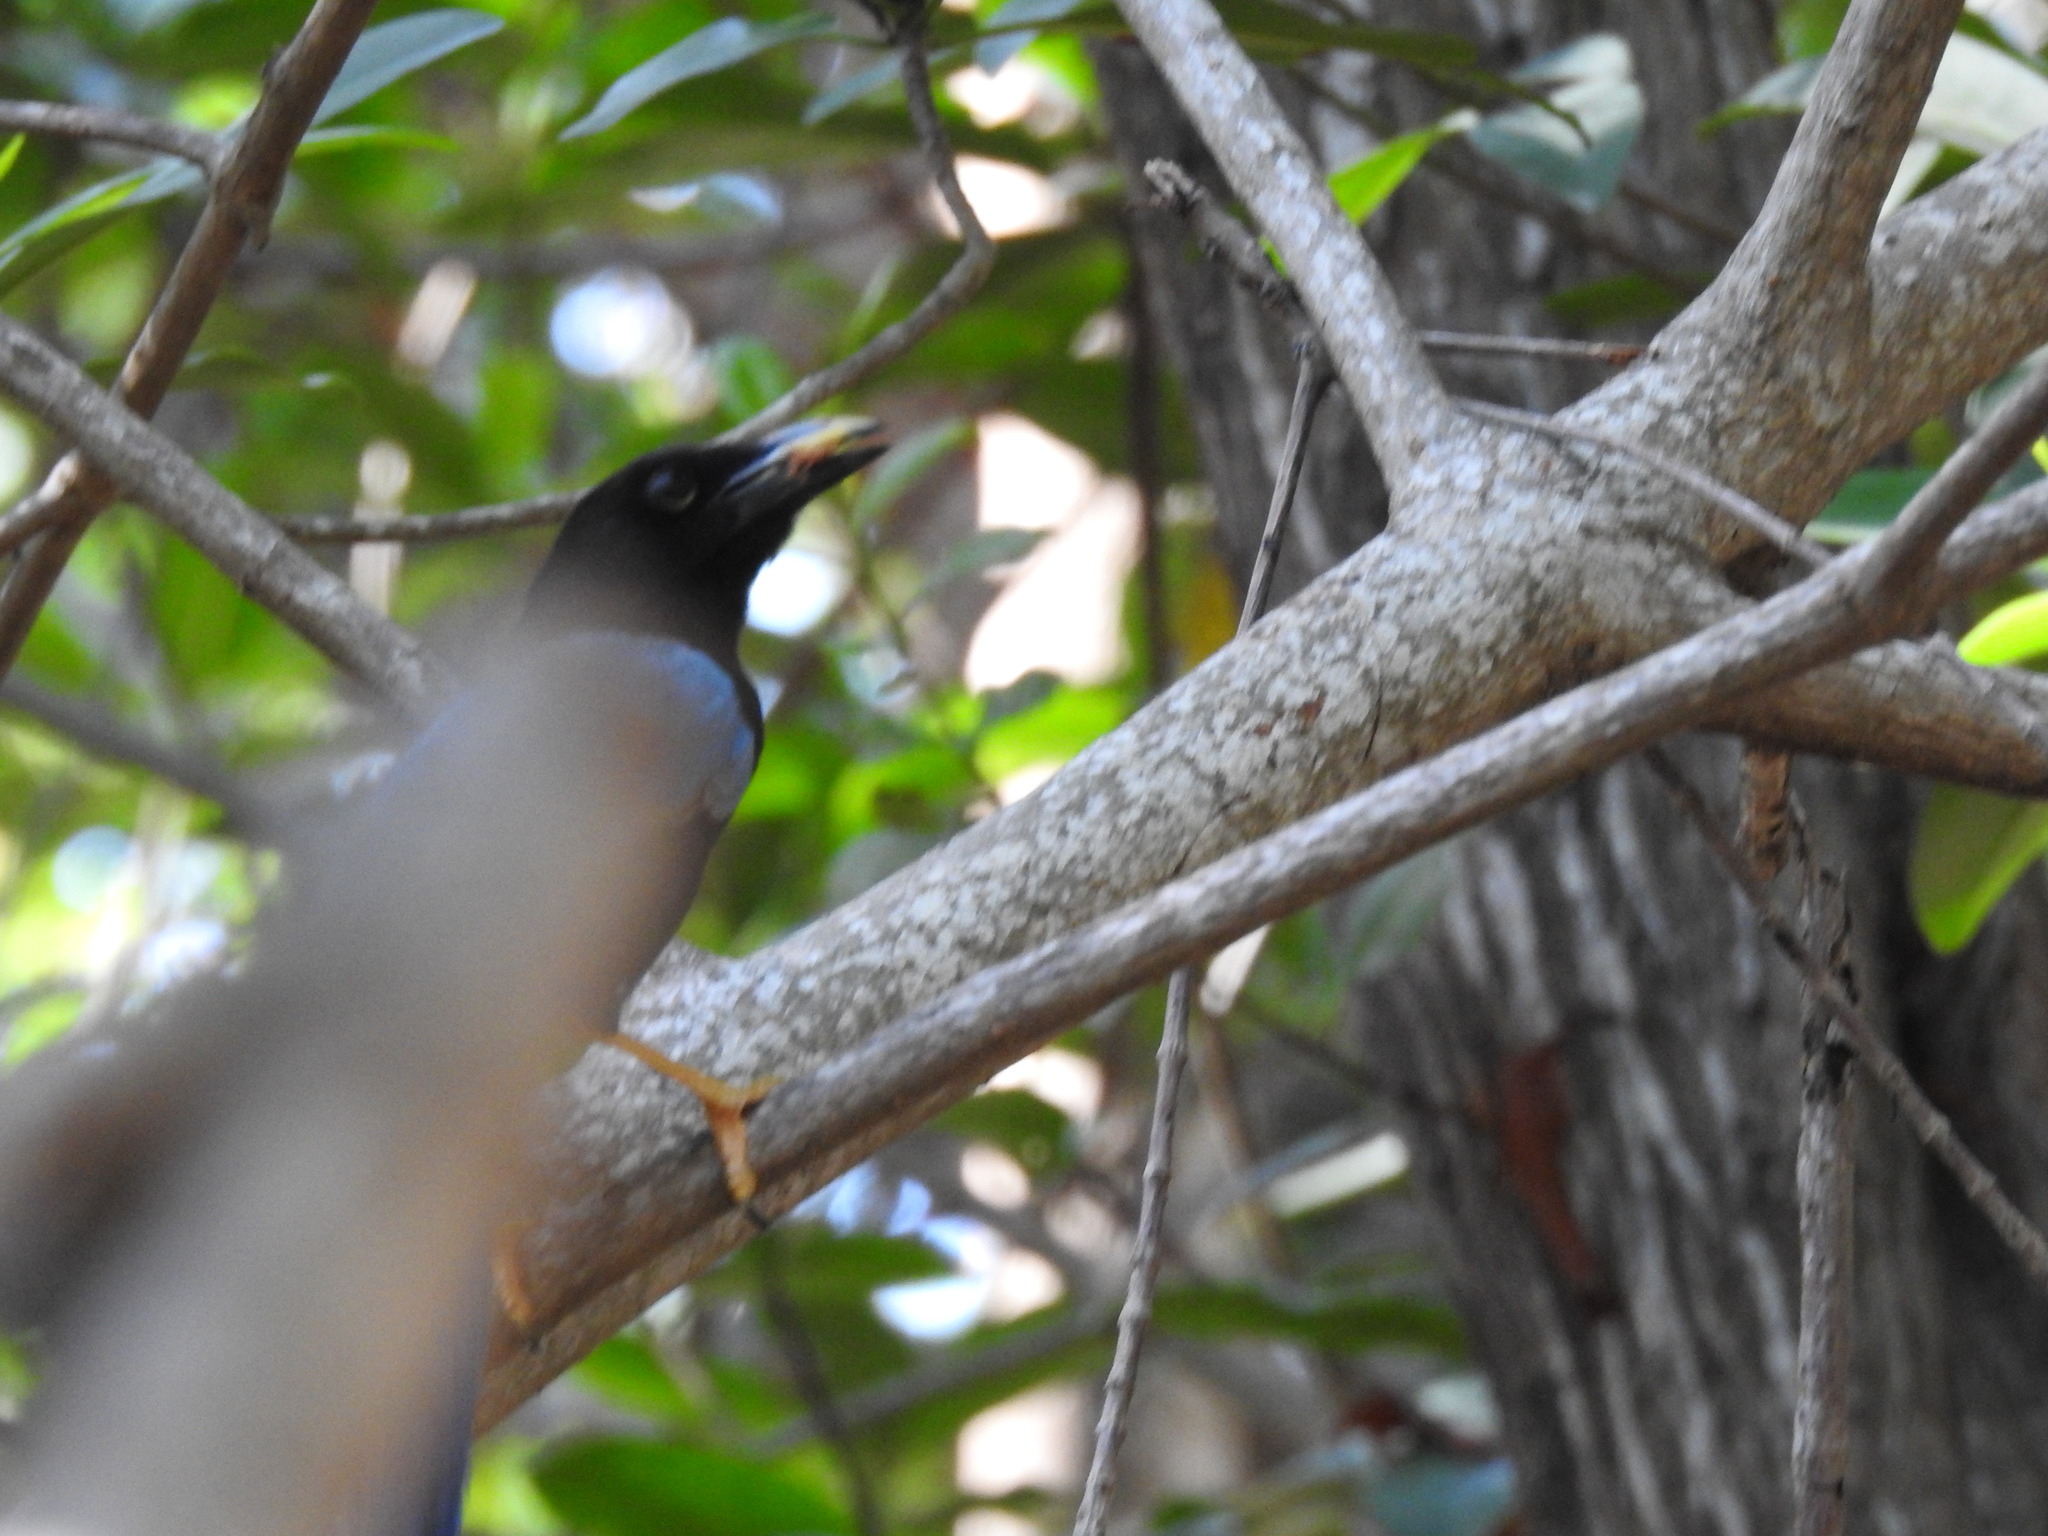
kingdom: Animalia
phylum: Chordata
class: Aves
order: Passeriformes
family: Corvidae
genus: Cyanocorax
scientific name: Cyanocorax yucatanicus
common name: Yucatan jay
